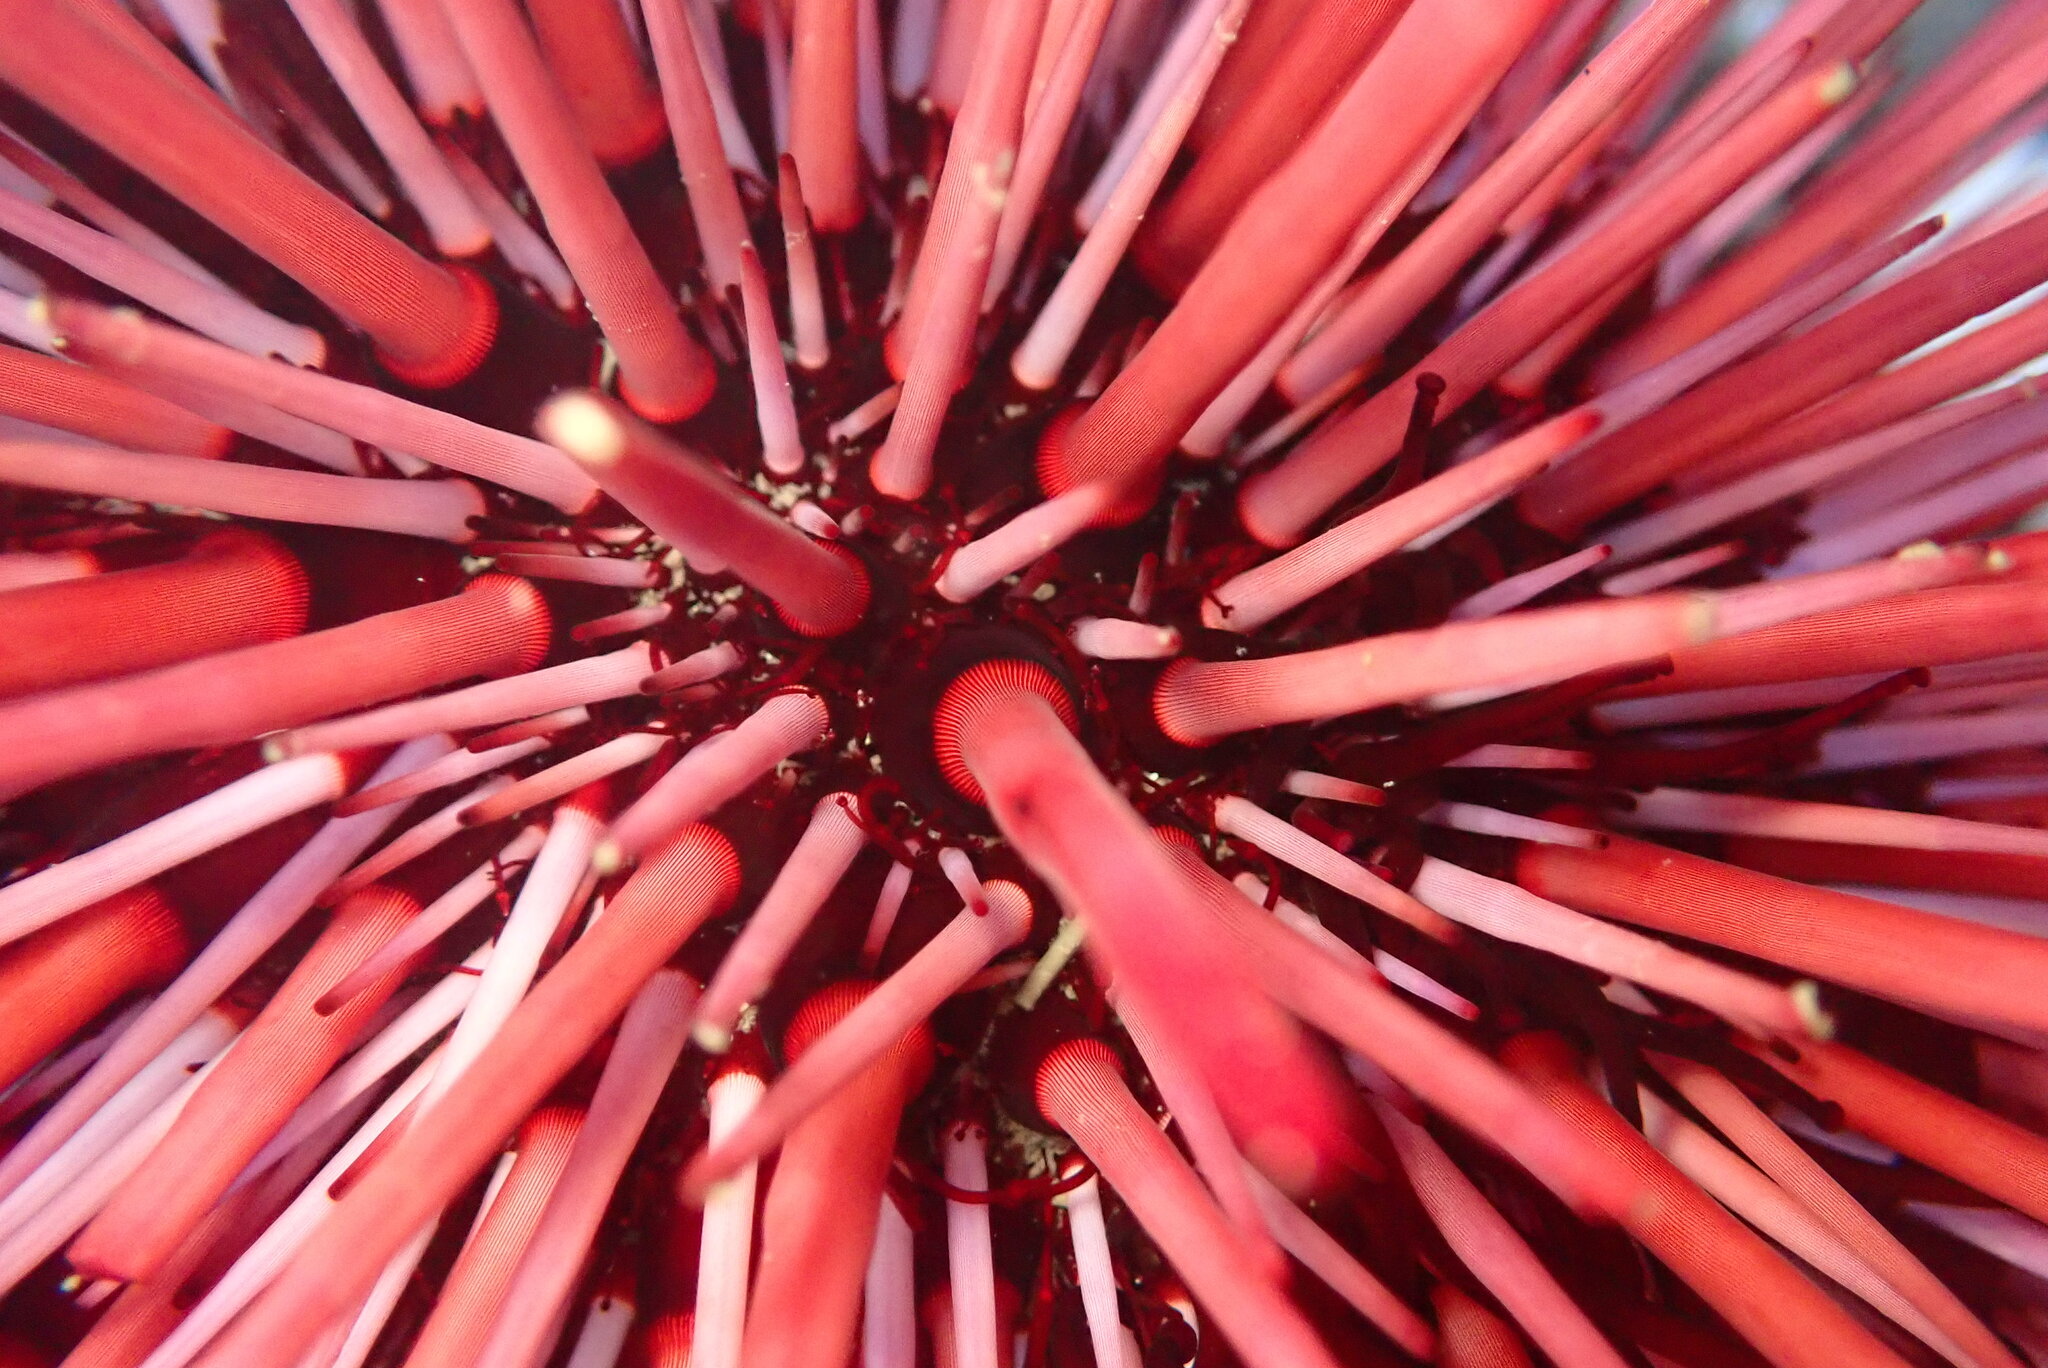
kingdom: Animalia
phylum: Echinodermata
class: Echinoidea
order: Camarodonta
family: Strongylocentrotidae
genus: Mesocentrotus
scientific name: Mesocentrotus franciscanus
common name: Red sea urchin
